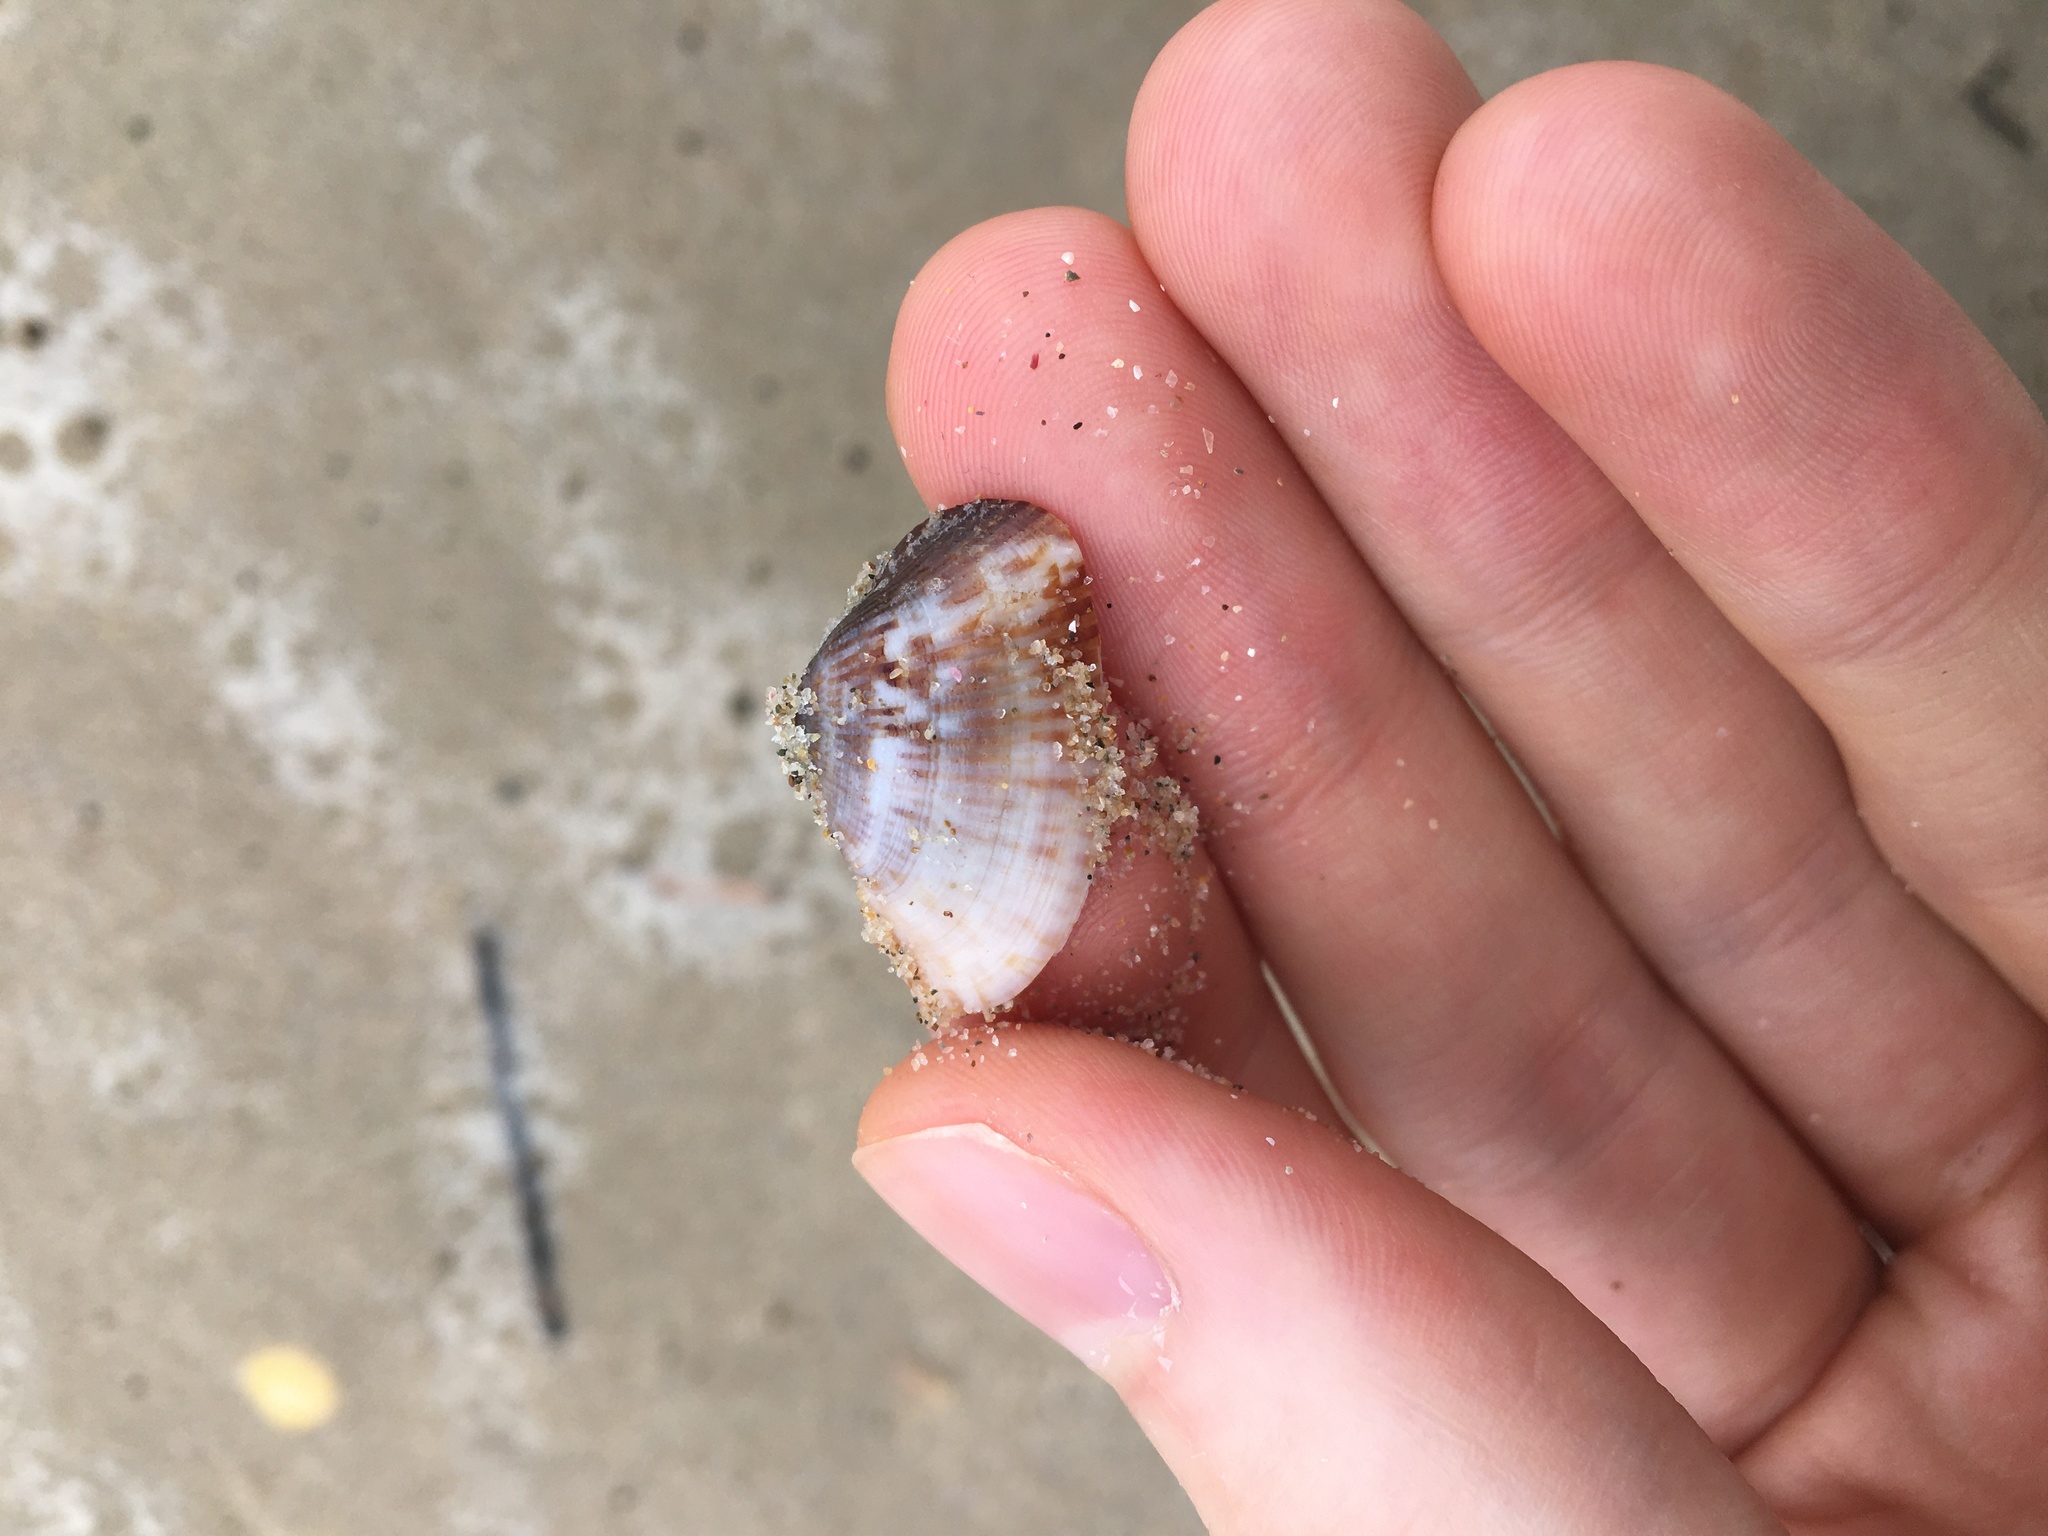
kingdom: Animalia
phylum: Mollusca
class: Bivalvia
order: Venerida
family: Hemidonacidae
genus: Hemidonax
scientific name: Hemidonax dactylus
